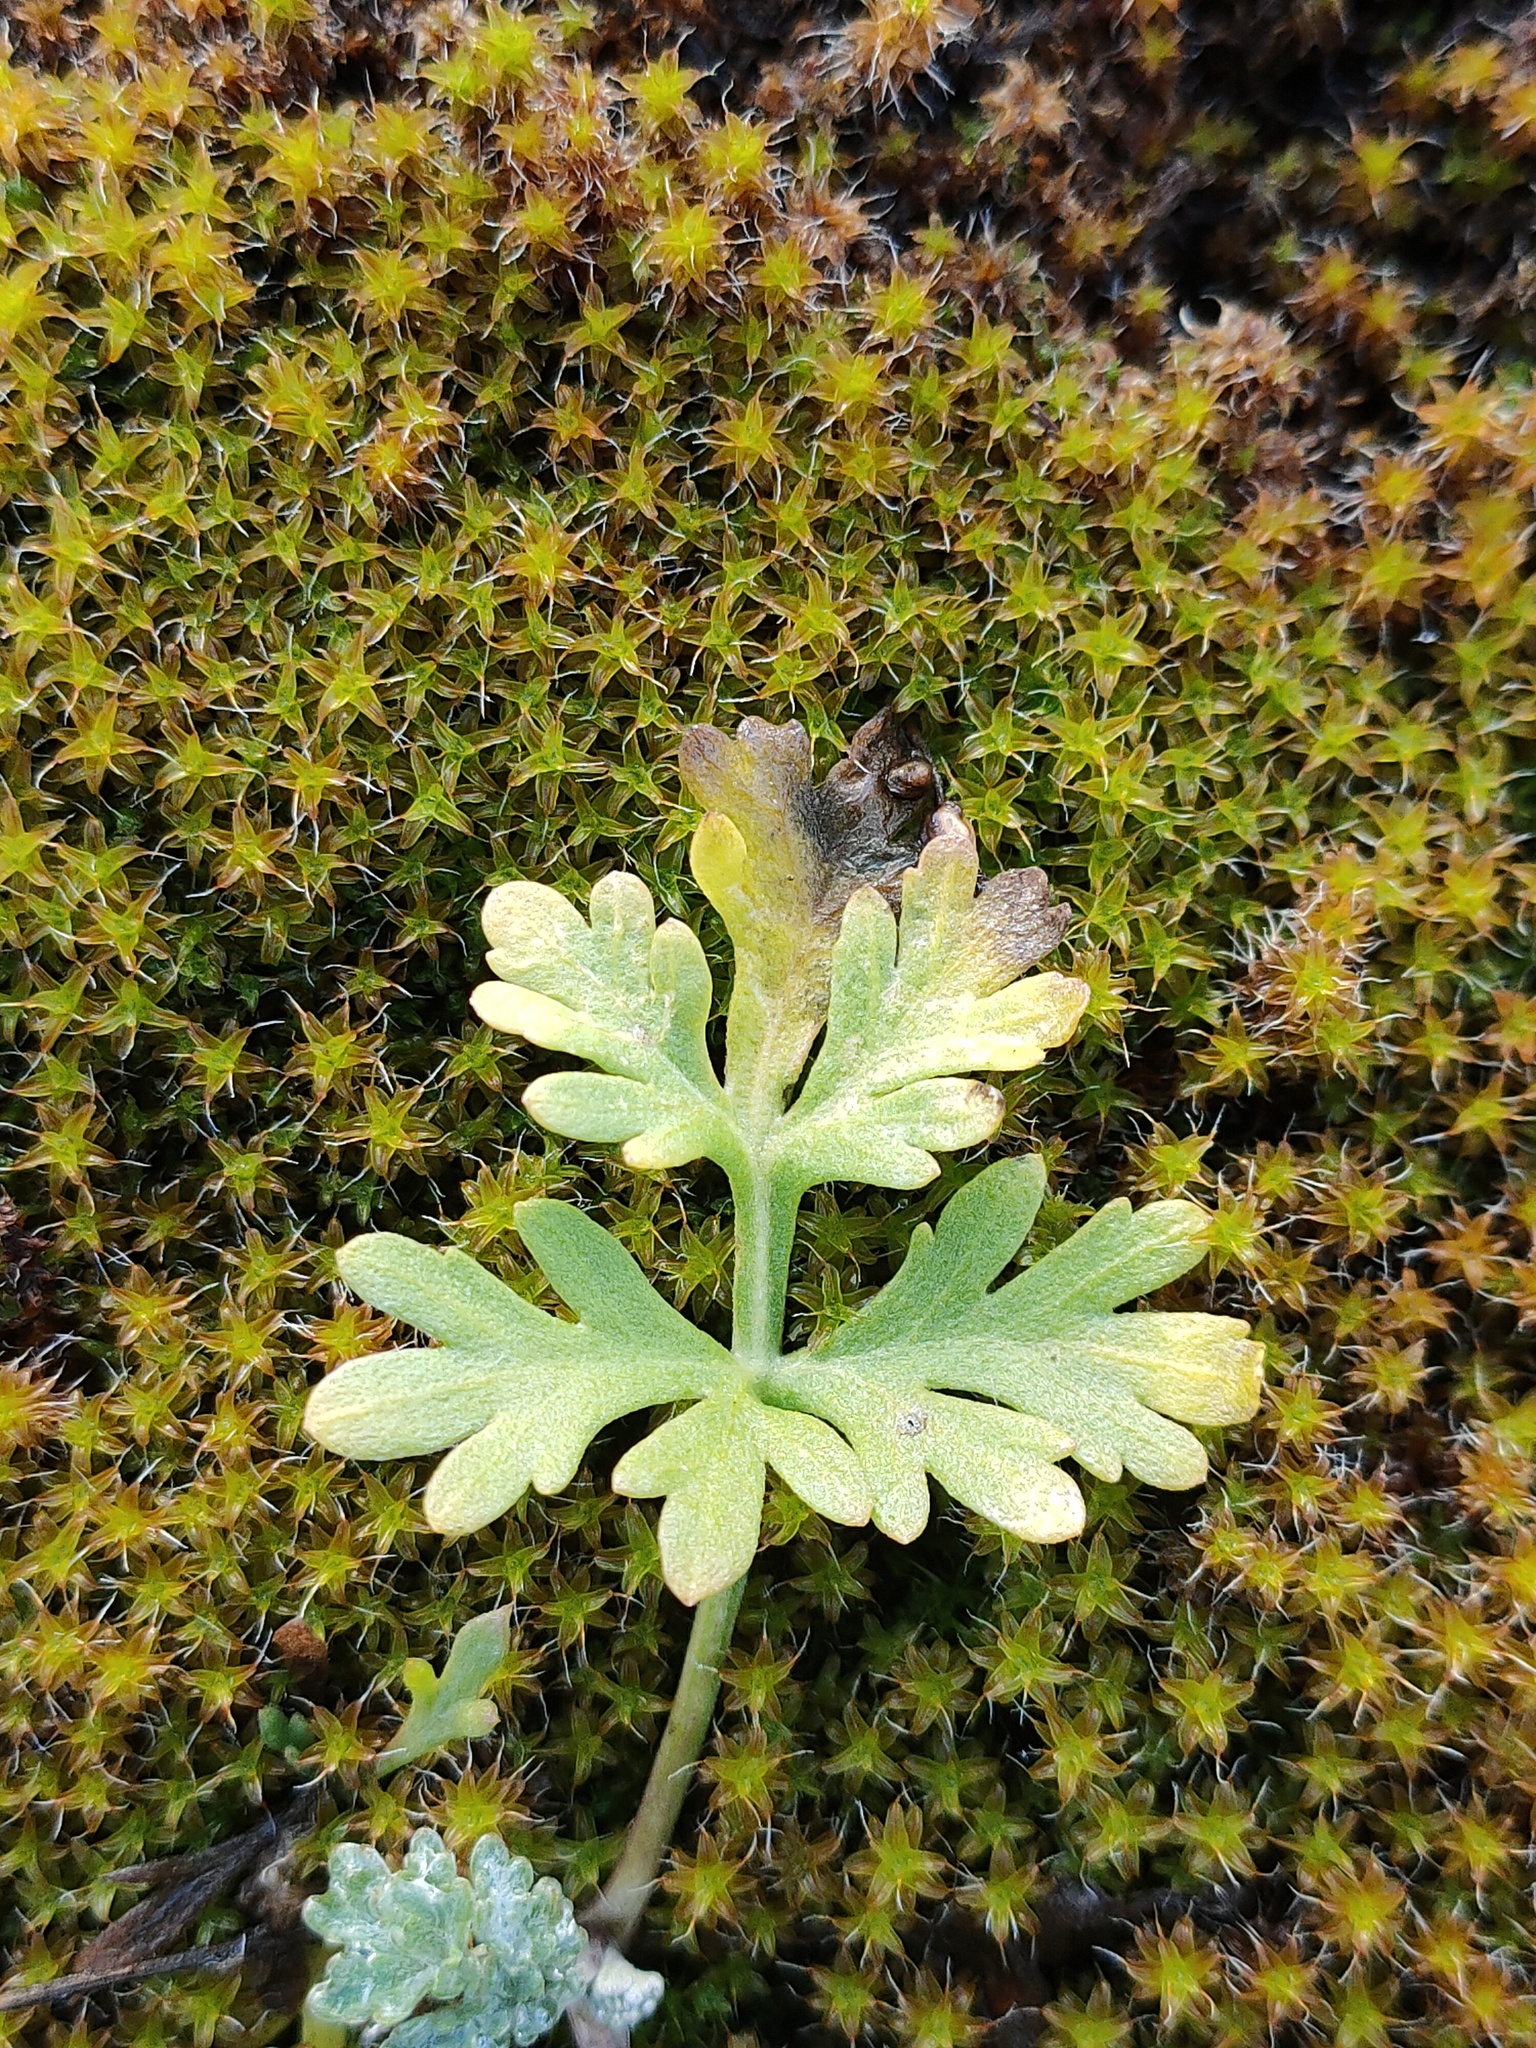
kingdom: Plantae
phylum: Tracheophyta
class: Magnoliopsida
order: Asterales
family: Asteraceae
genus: Artemisia
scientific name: Artemisia absinthium
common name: Wormwood
